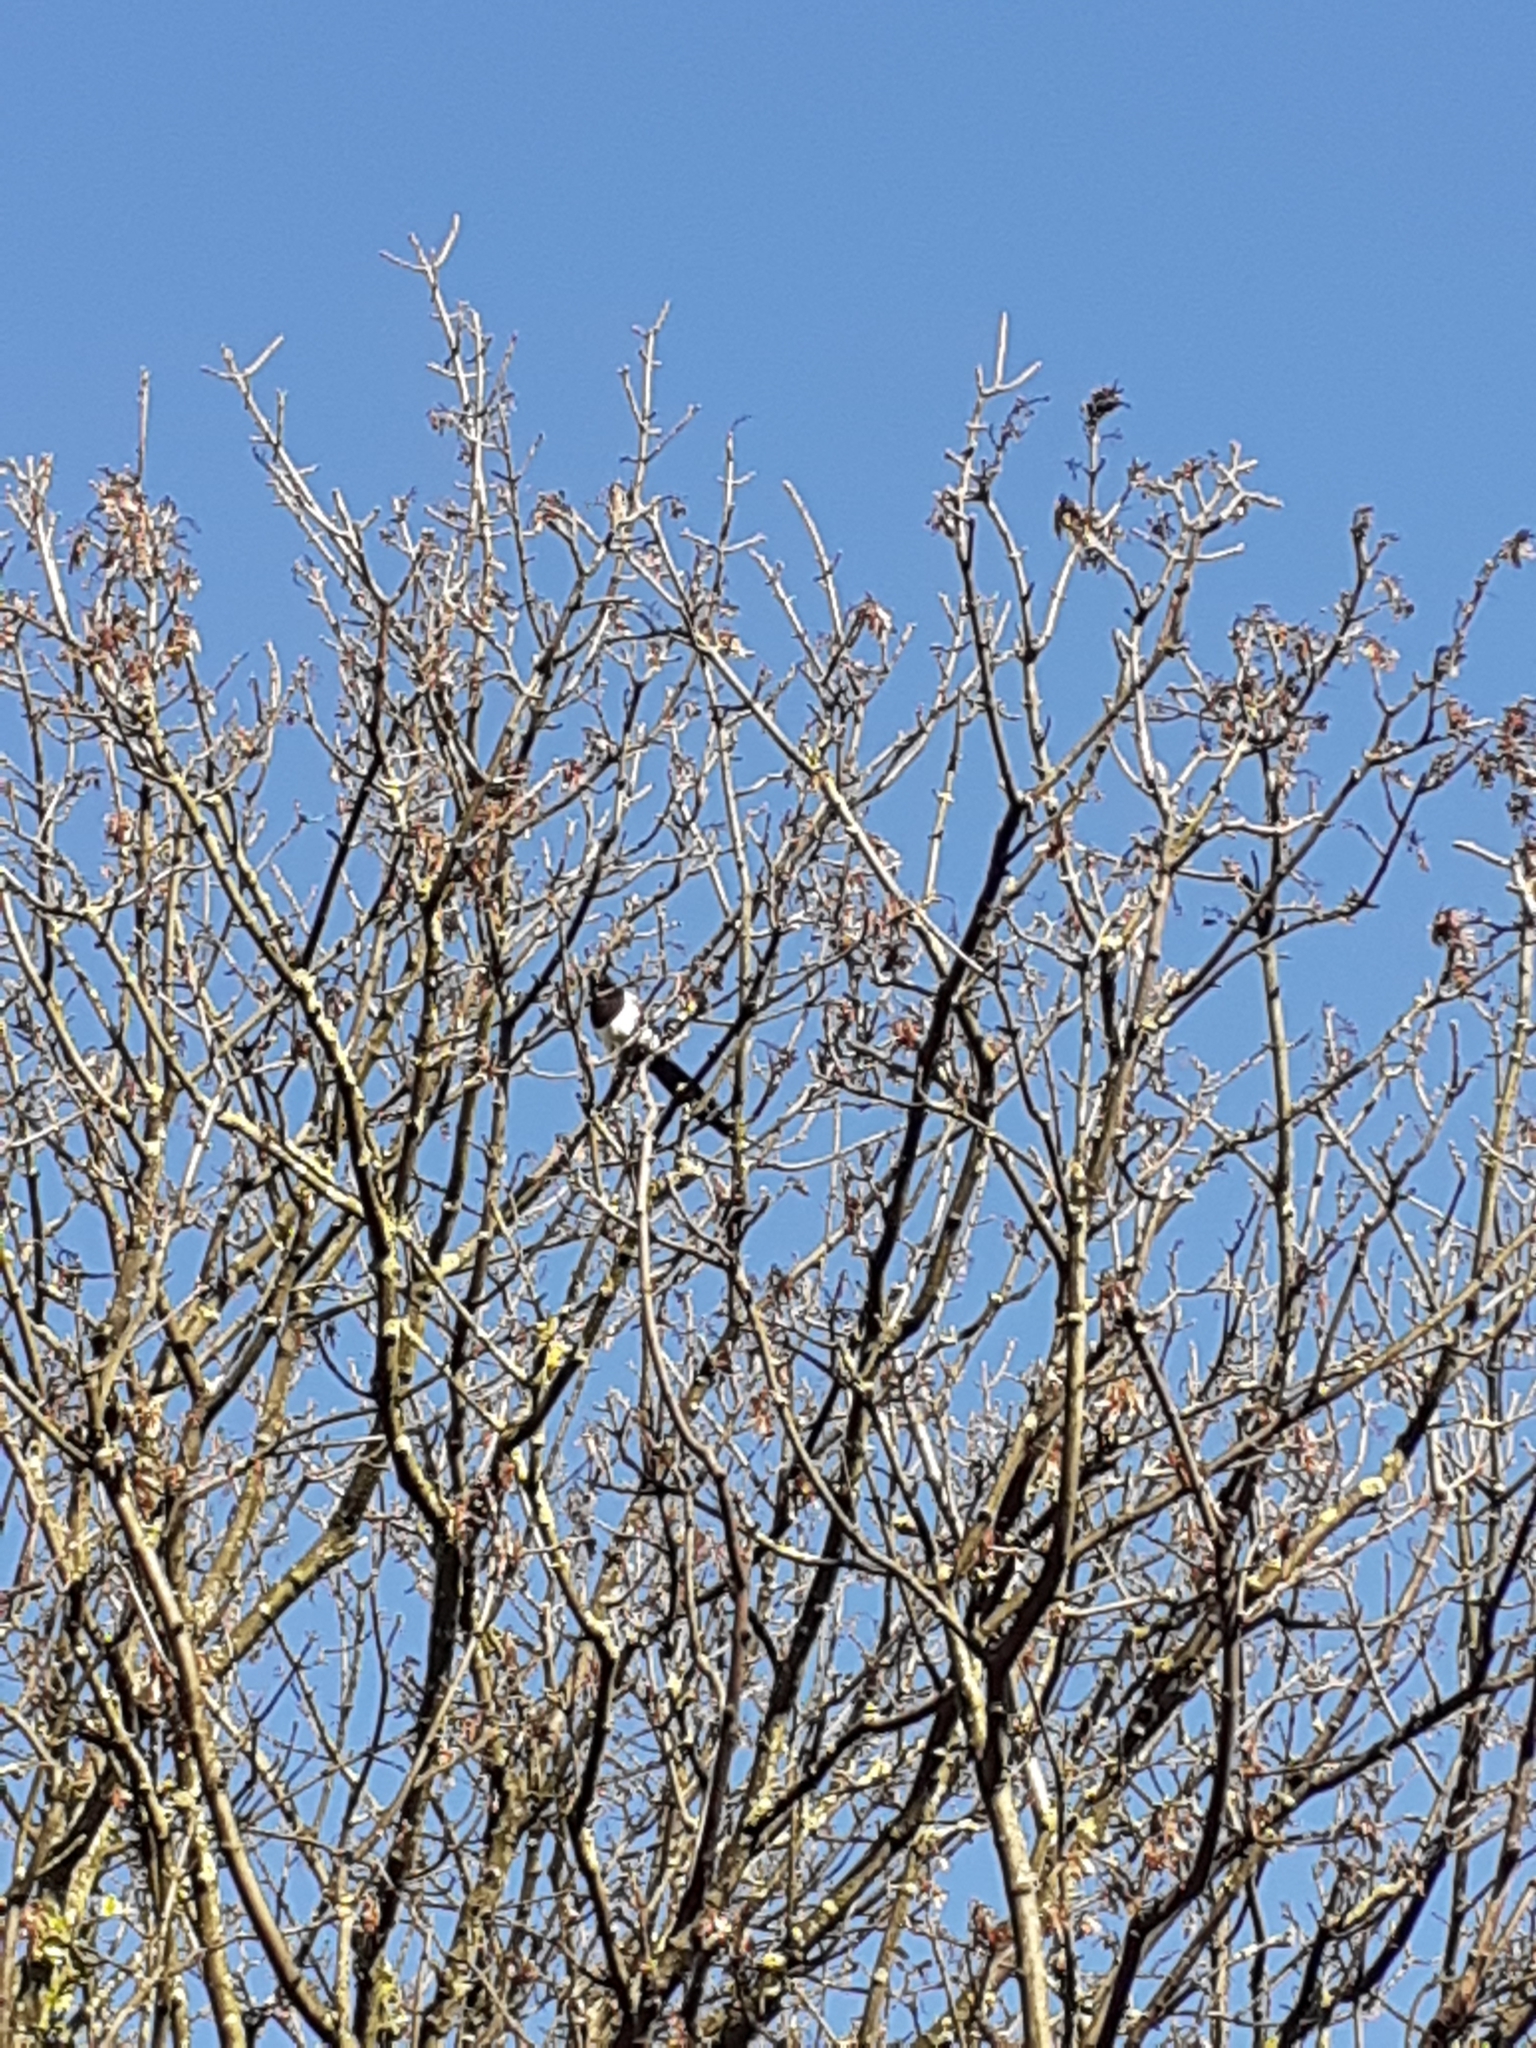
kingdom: Animalia
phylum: Chordata
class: Aves
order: Passeriformes
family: Corvidae
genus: Pica
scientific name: Pica pica
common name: Eurasian magpie
